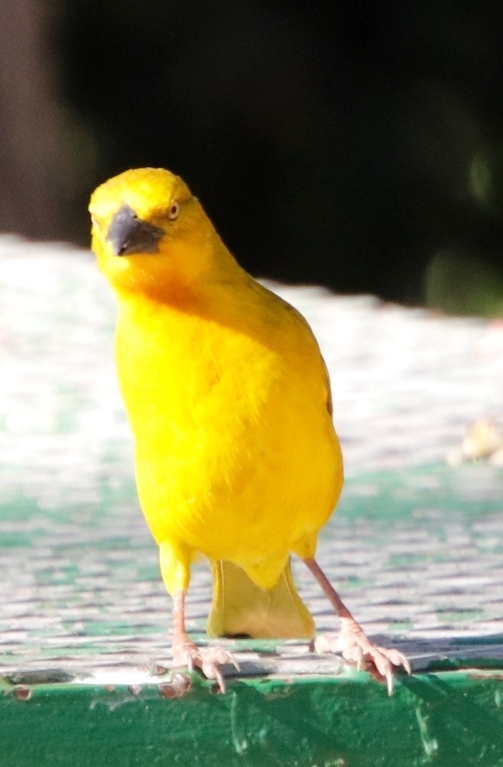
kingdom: Animalia
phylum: Chordata
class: Aves
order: Passeriformes
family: Ploceidae
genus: Ploceus
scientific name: Ploceus xanthops
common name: Holub's golden weaver
